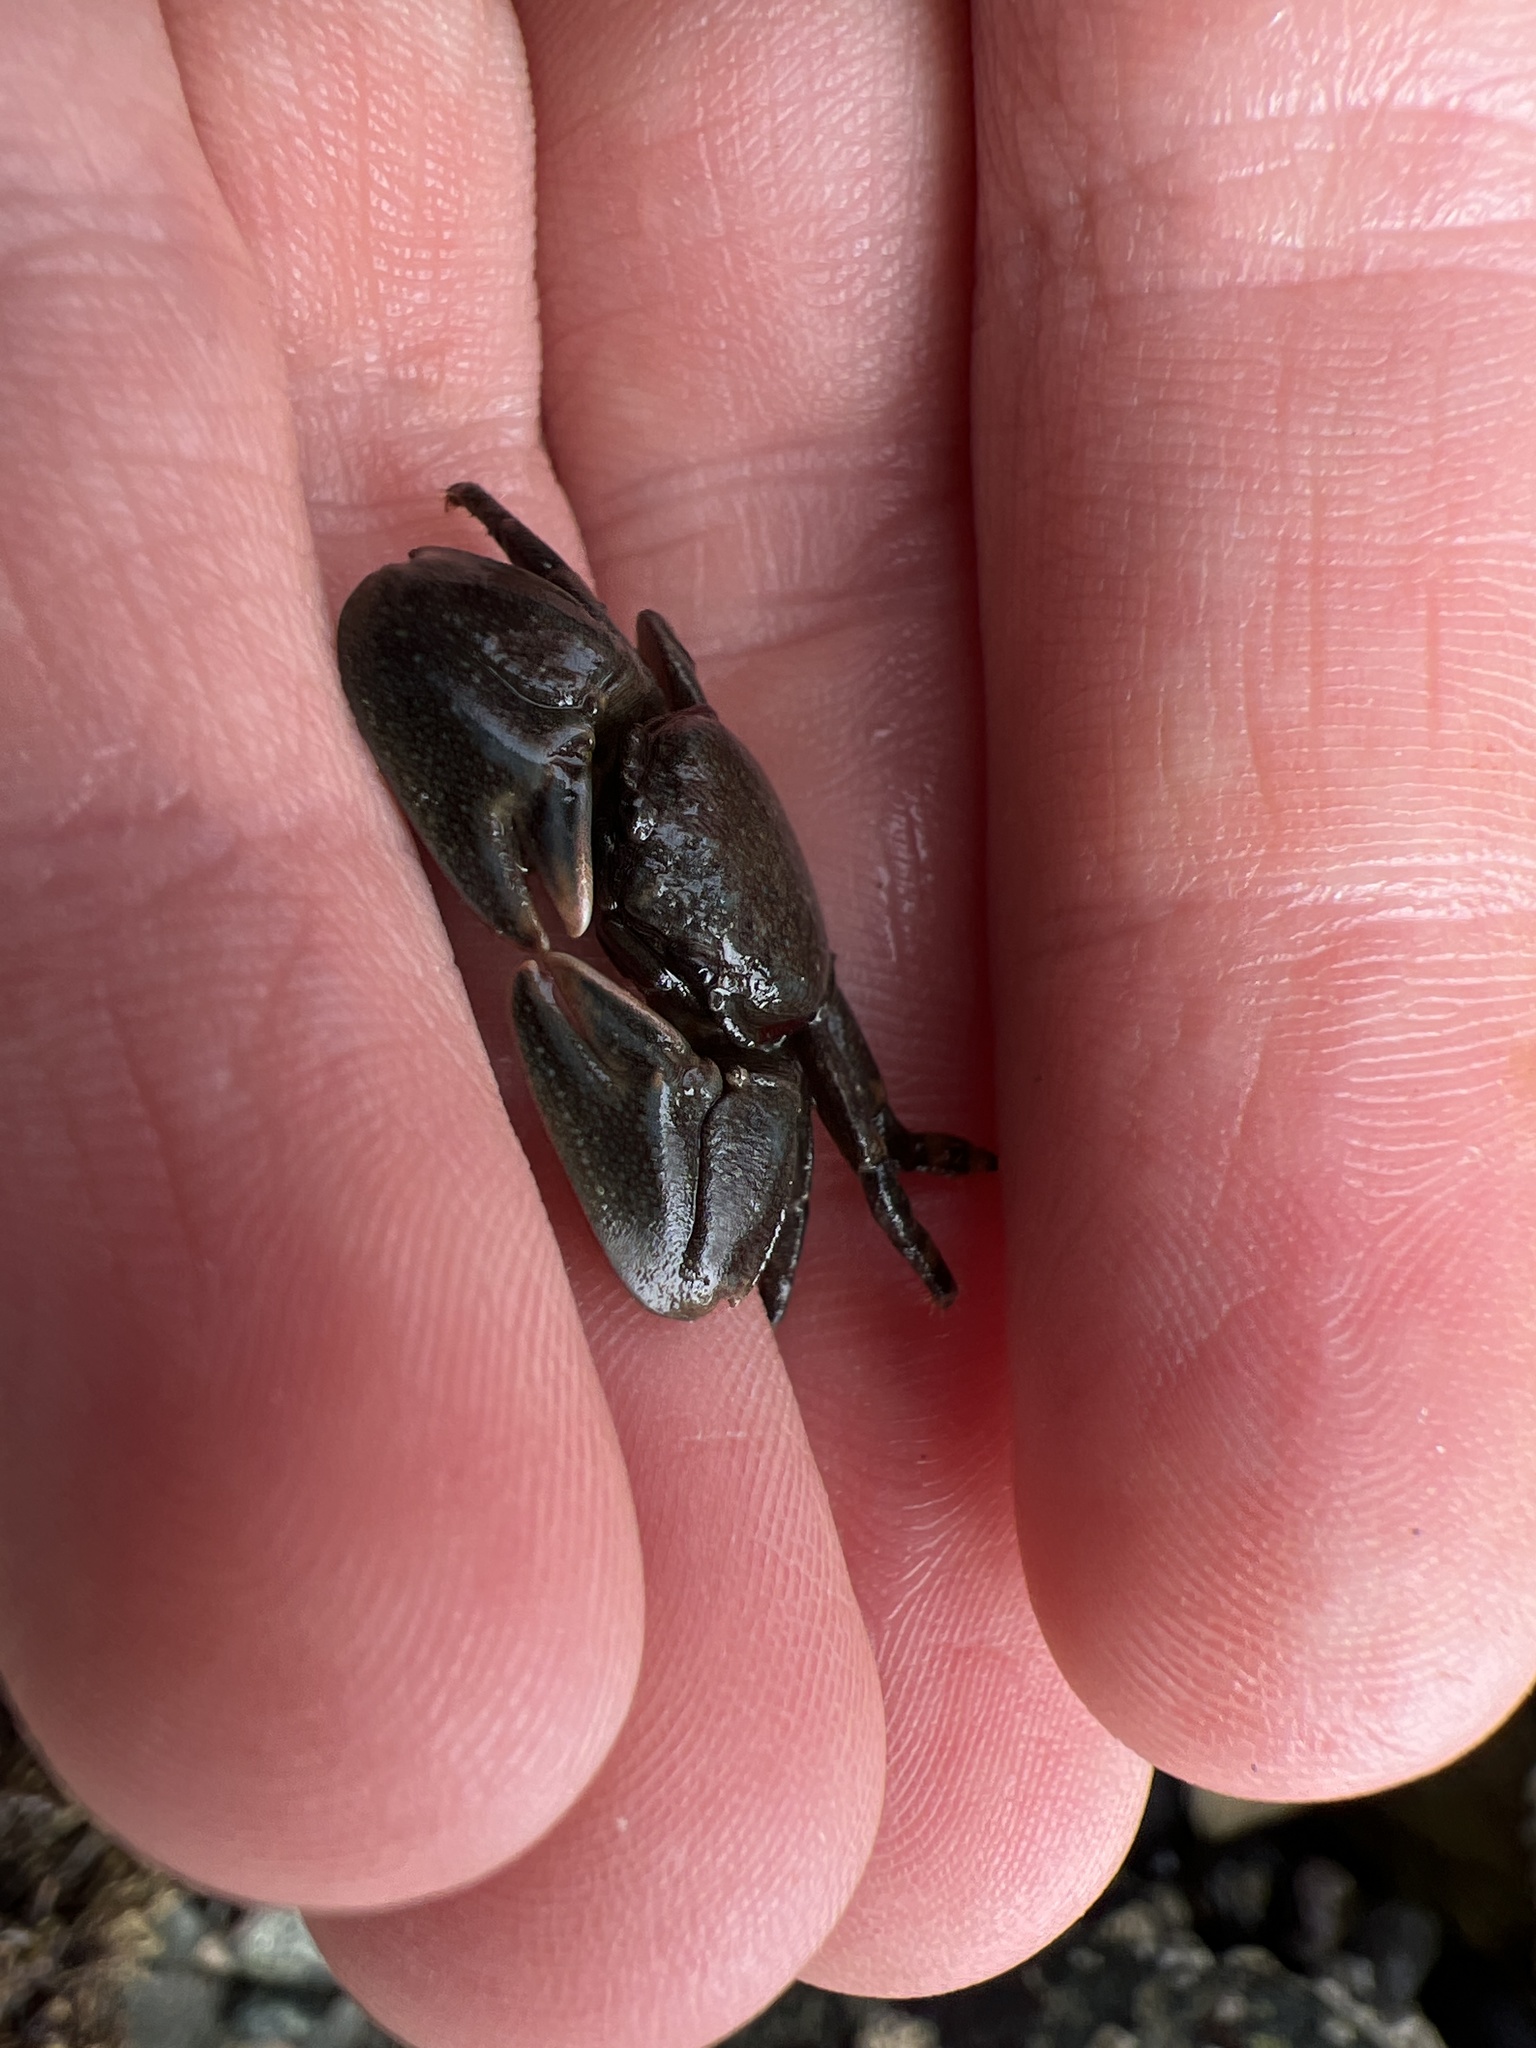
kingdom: Animalia
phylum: Arthropoda
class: Malacostraca
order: Decapoda
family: Porcellanidae
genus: Petrolisthes
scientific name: Petrolisthes cinctipes
